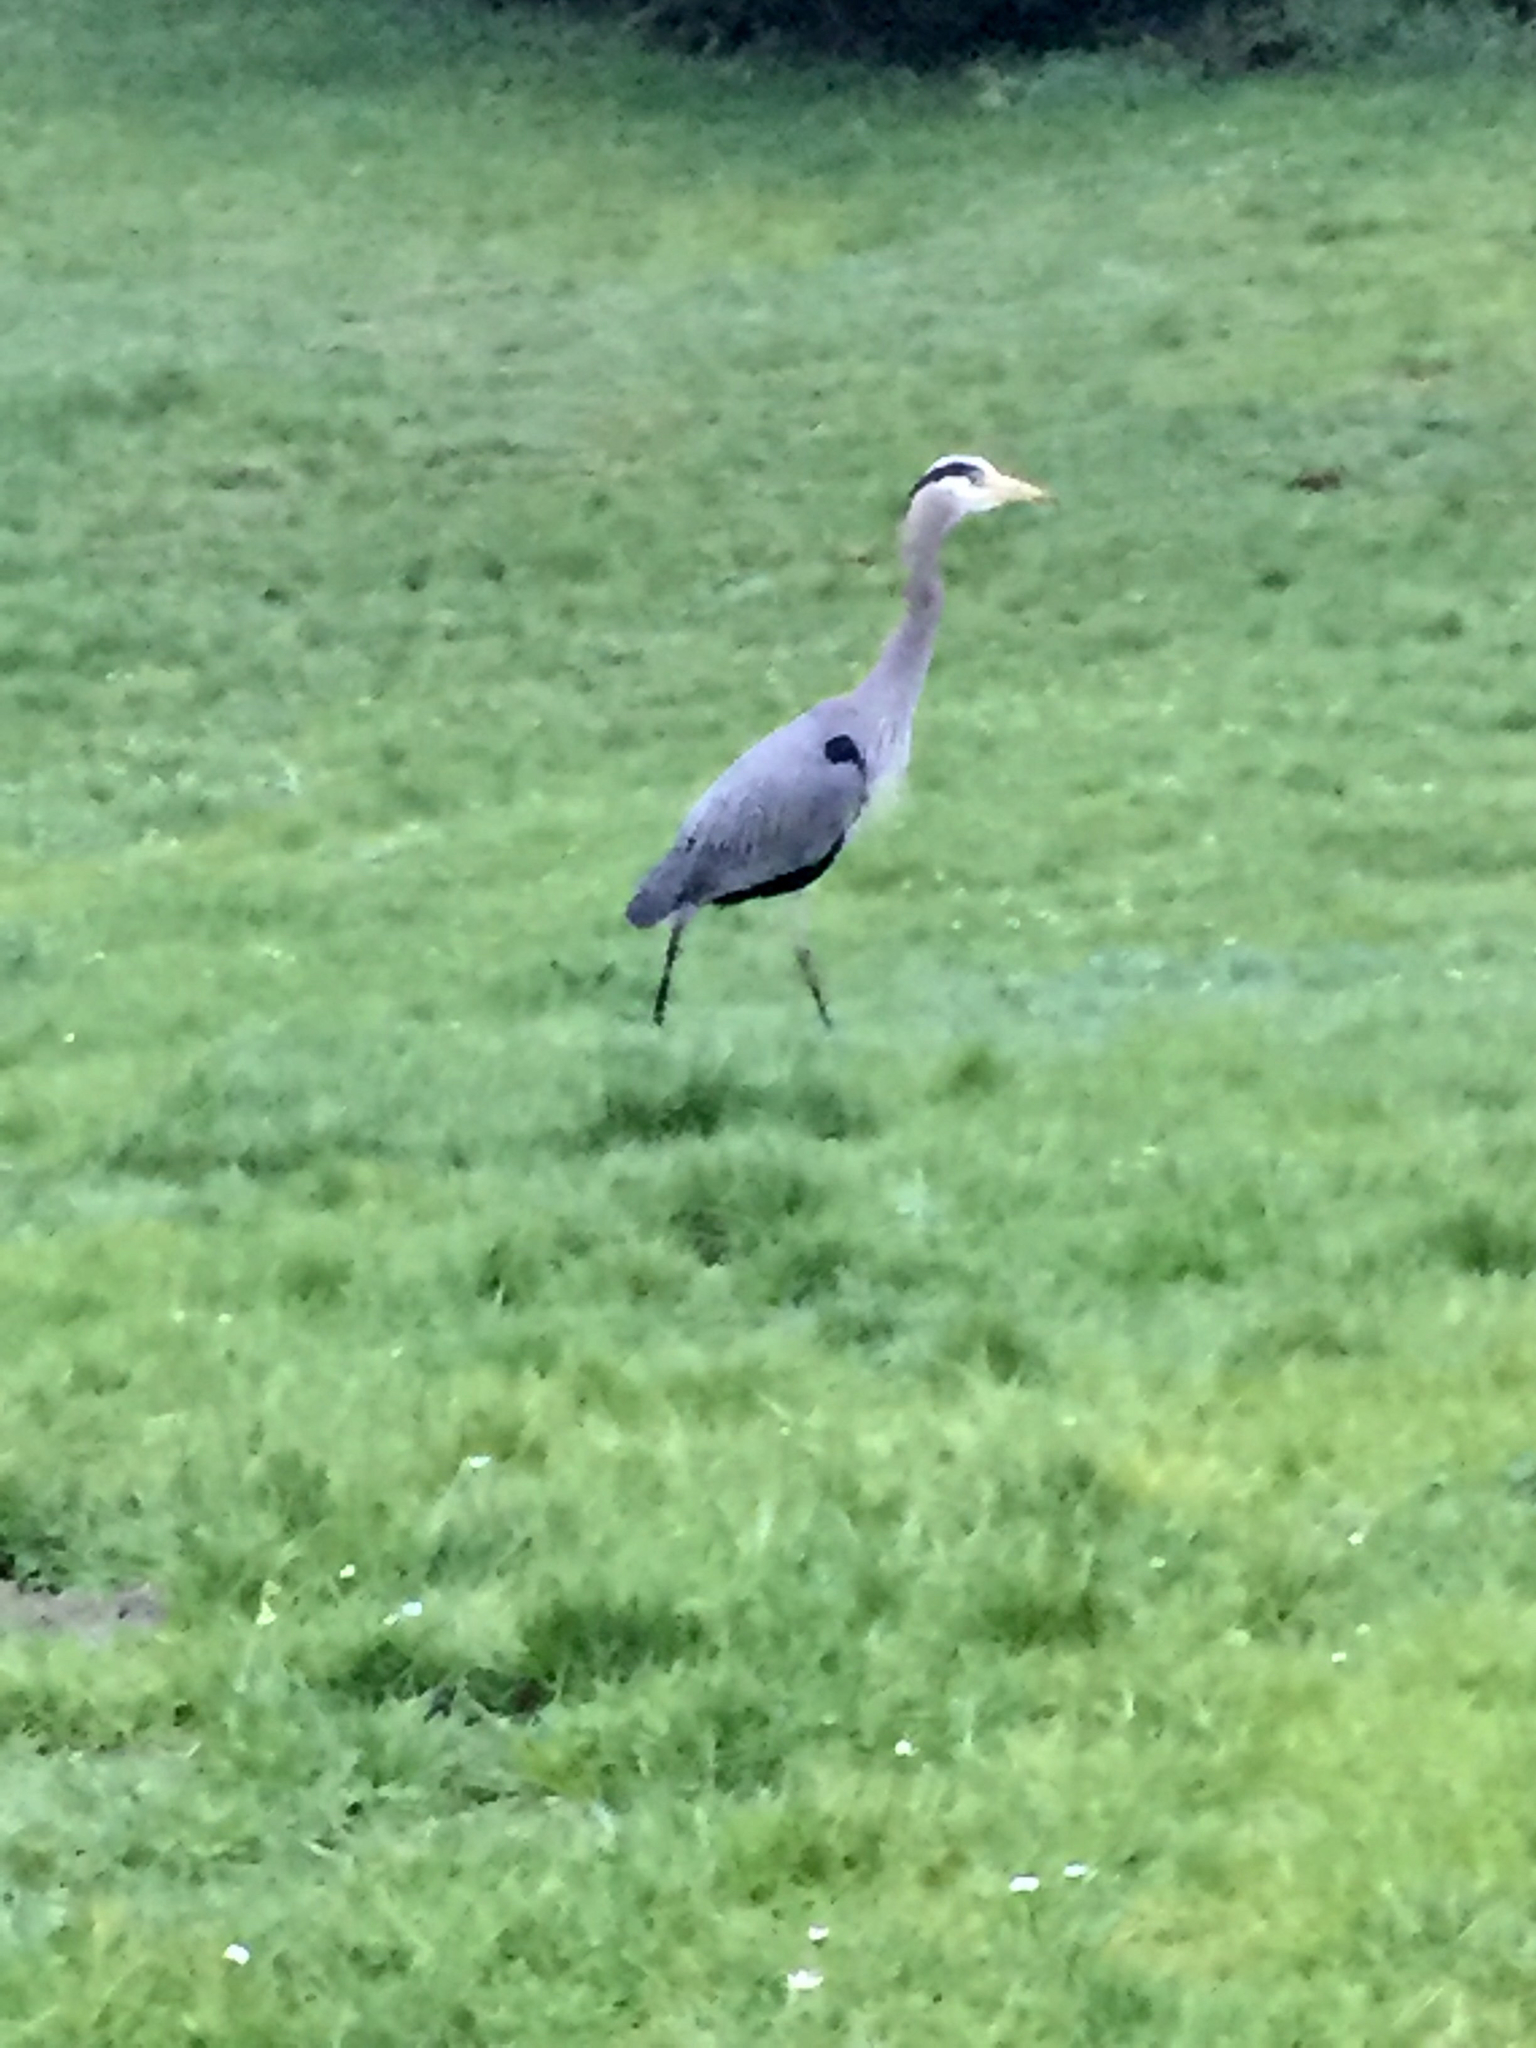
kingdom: Animalia
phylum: Chordata
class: Aves
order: Pelecaniformes
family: Ardeidae
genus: Ardea
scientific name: Ardea herodias
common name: Great blue heron
